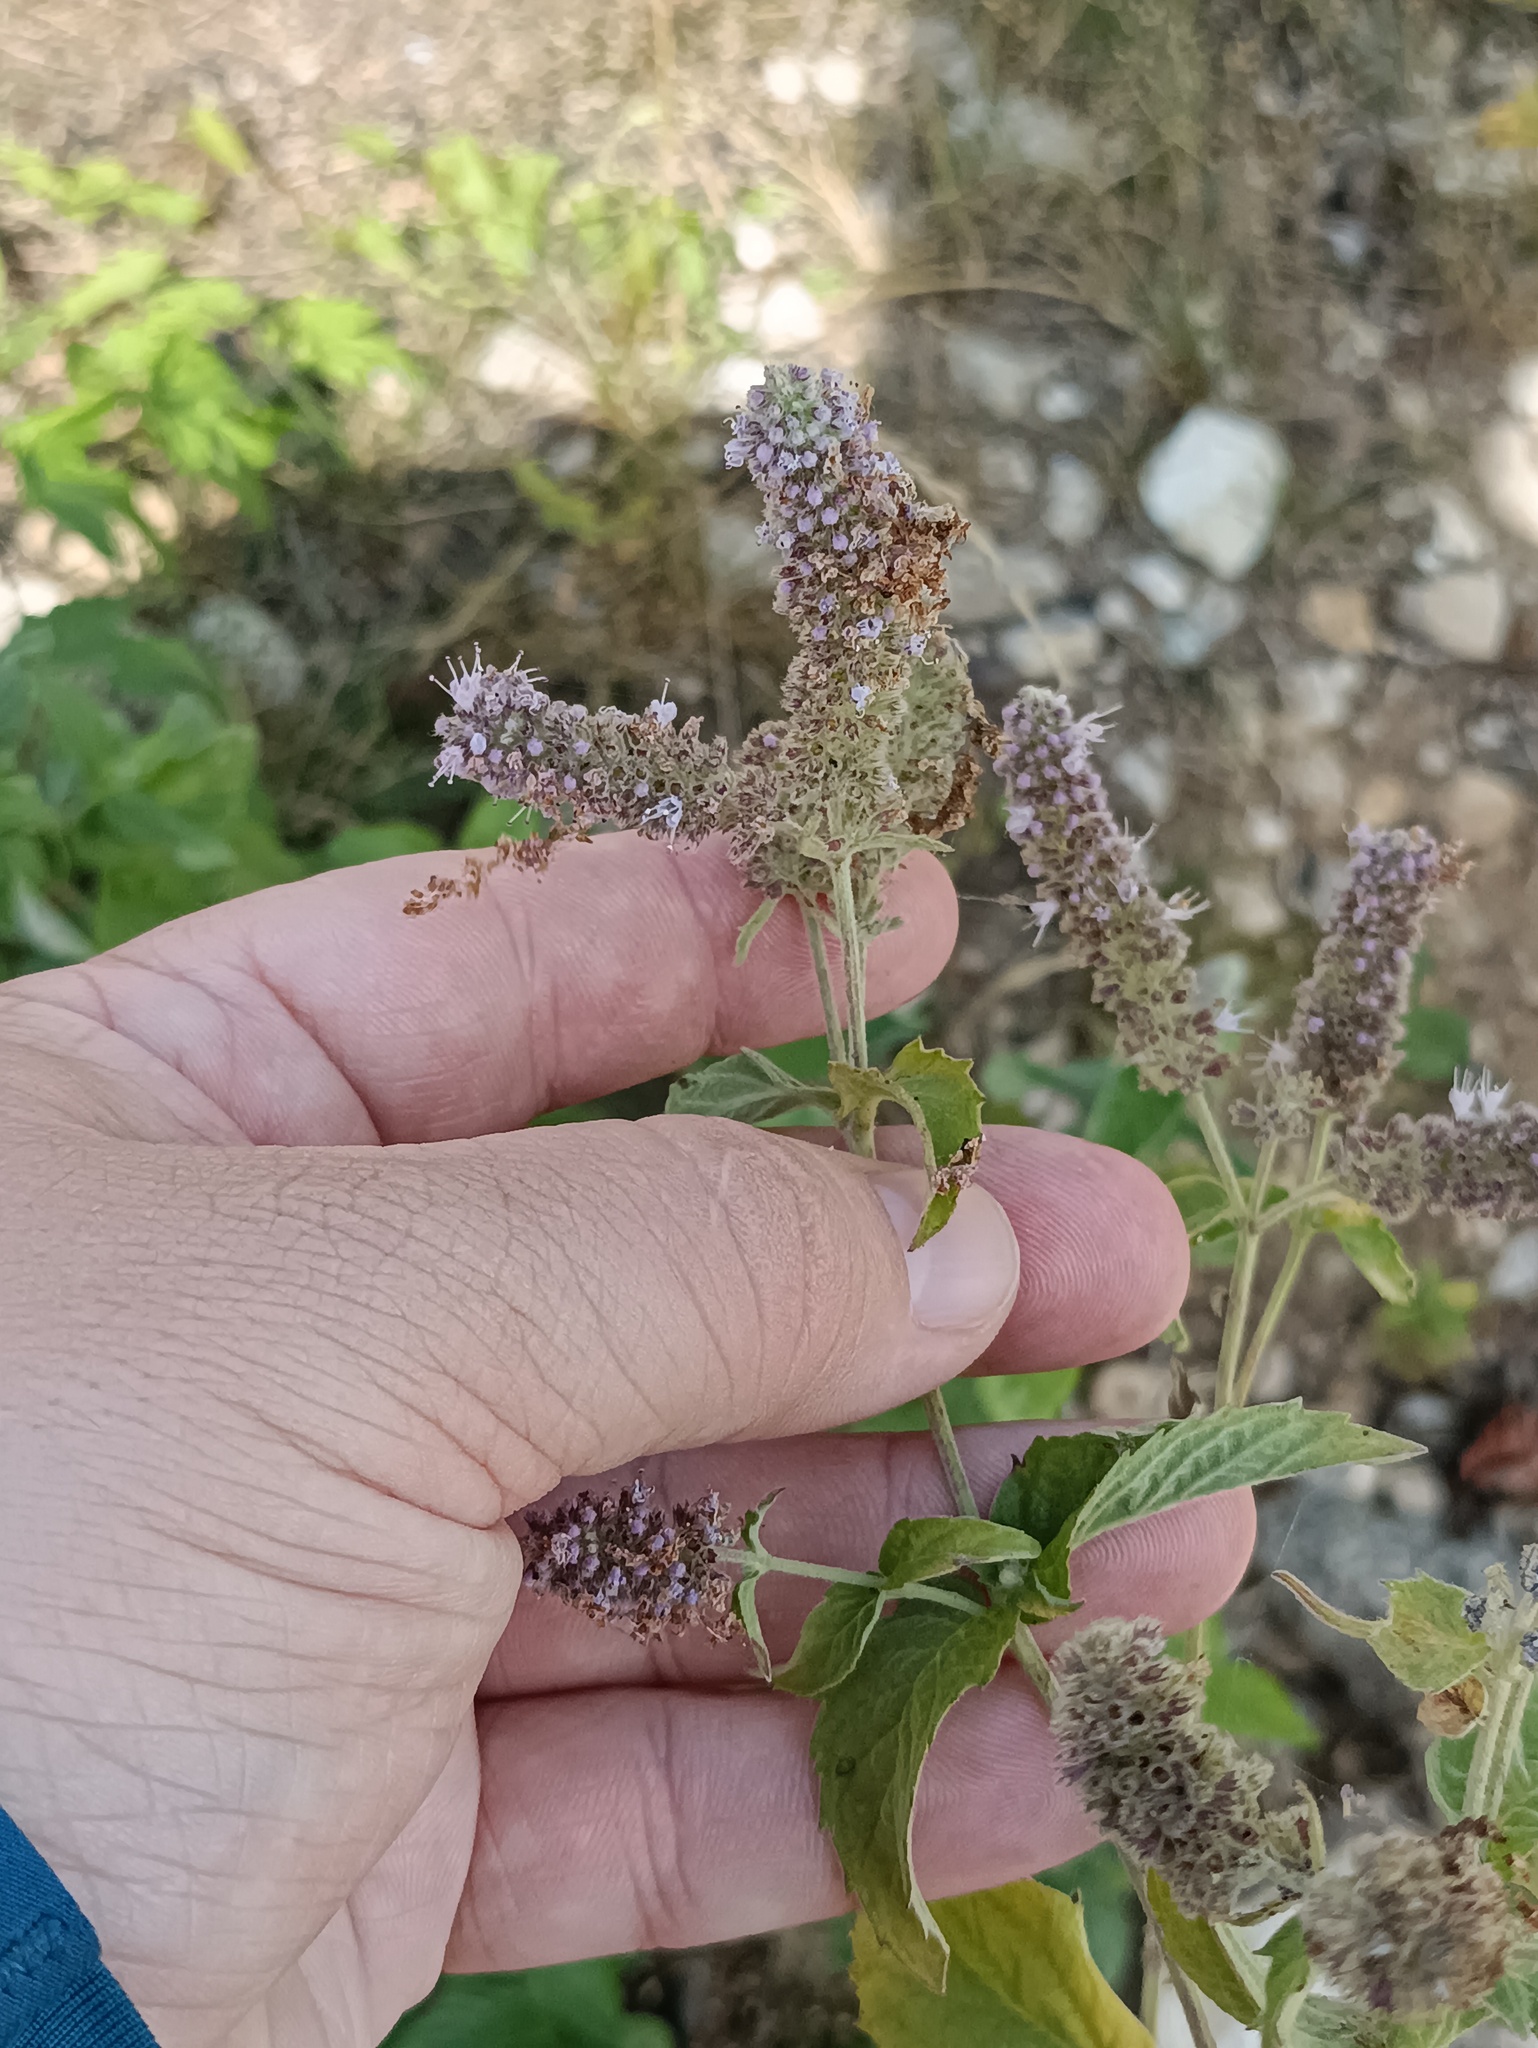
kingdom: Plantae
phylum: Tracheophyta
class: Magnoliopsida
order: Lamiales
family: Lamiaceae
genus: Mentha
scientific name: Mentha longifolia
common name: Horse mint
